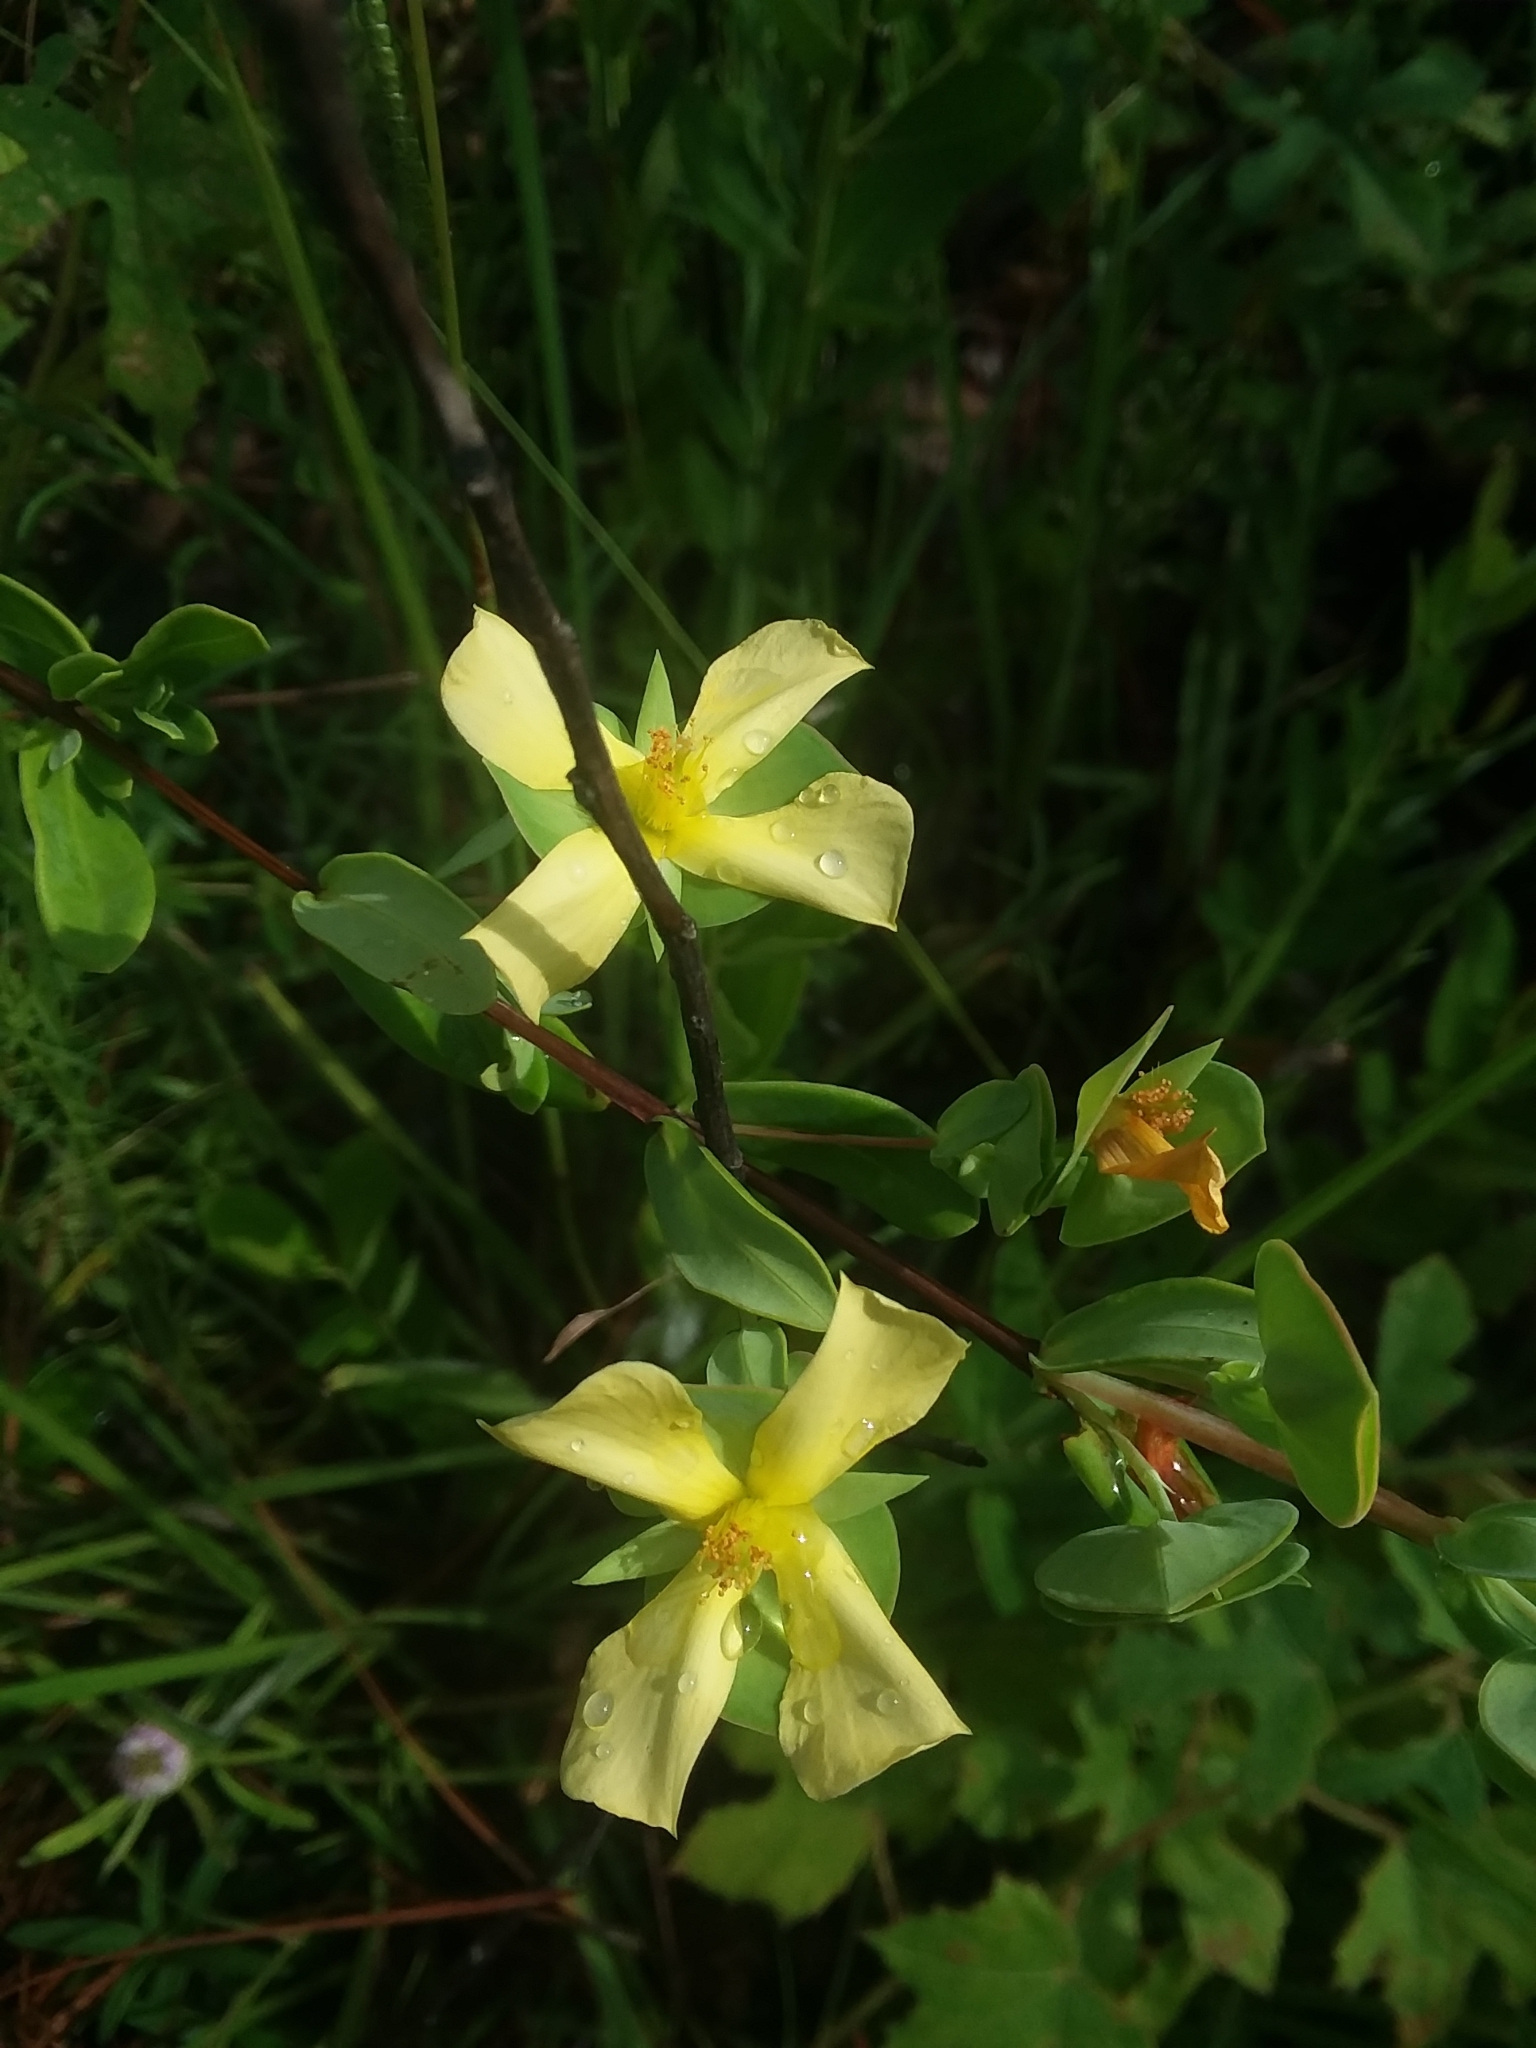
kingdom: Plantae
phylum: Tracheophyta
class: Magnoliopsida
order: Malpighiales
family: Hypericaceae
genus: Hypericum
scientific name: Hypericum crux-andreae
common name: St.-peter's-wort
